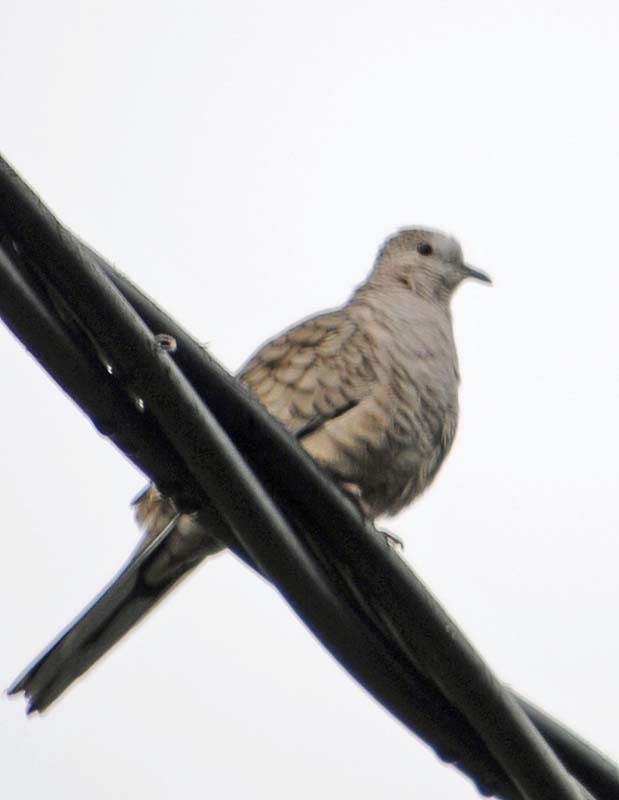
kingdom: Animalia
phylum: Chordata
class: Aves
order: Columbiformes
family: Columbidae
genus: Columbina
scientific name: Columbina inca
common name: Inca dove
